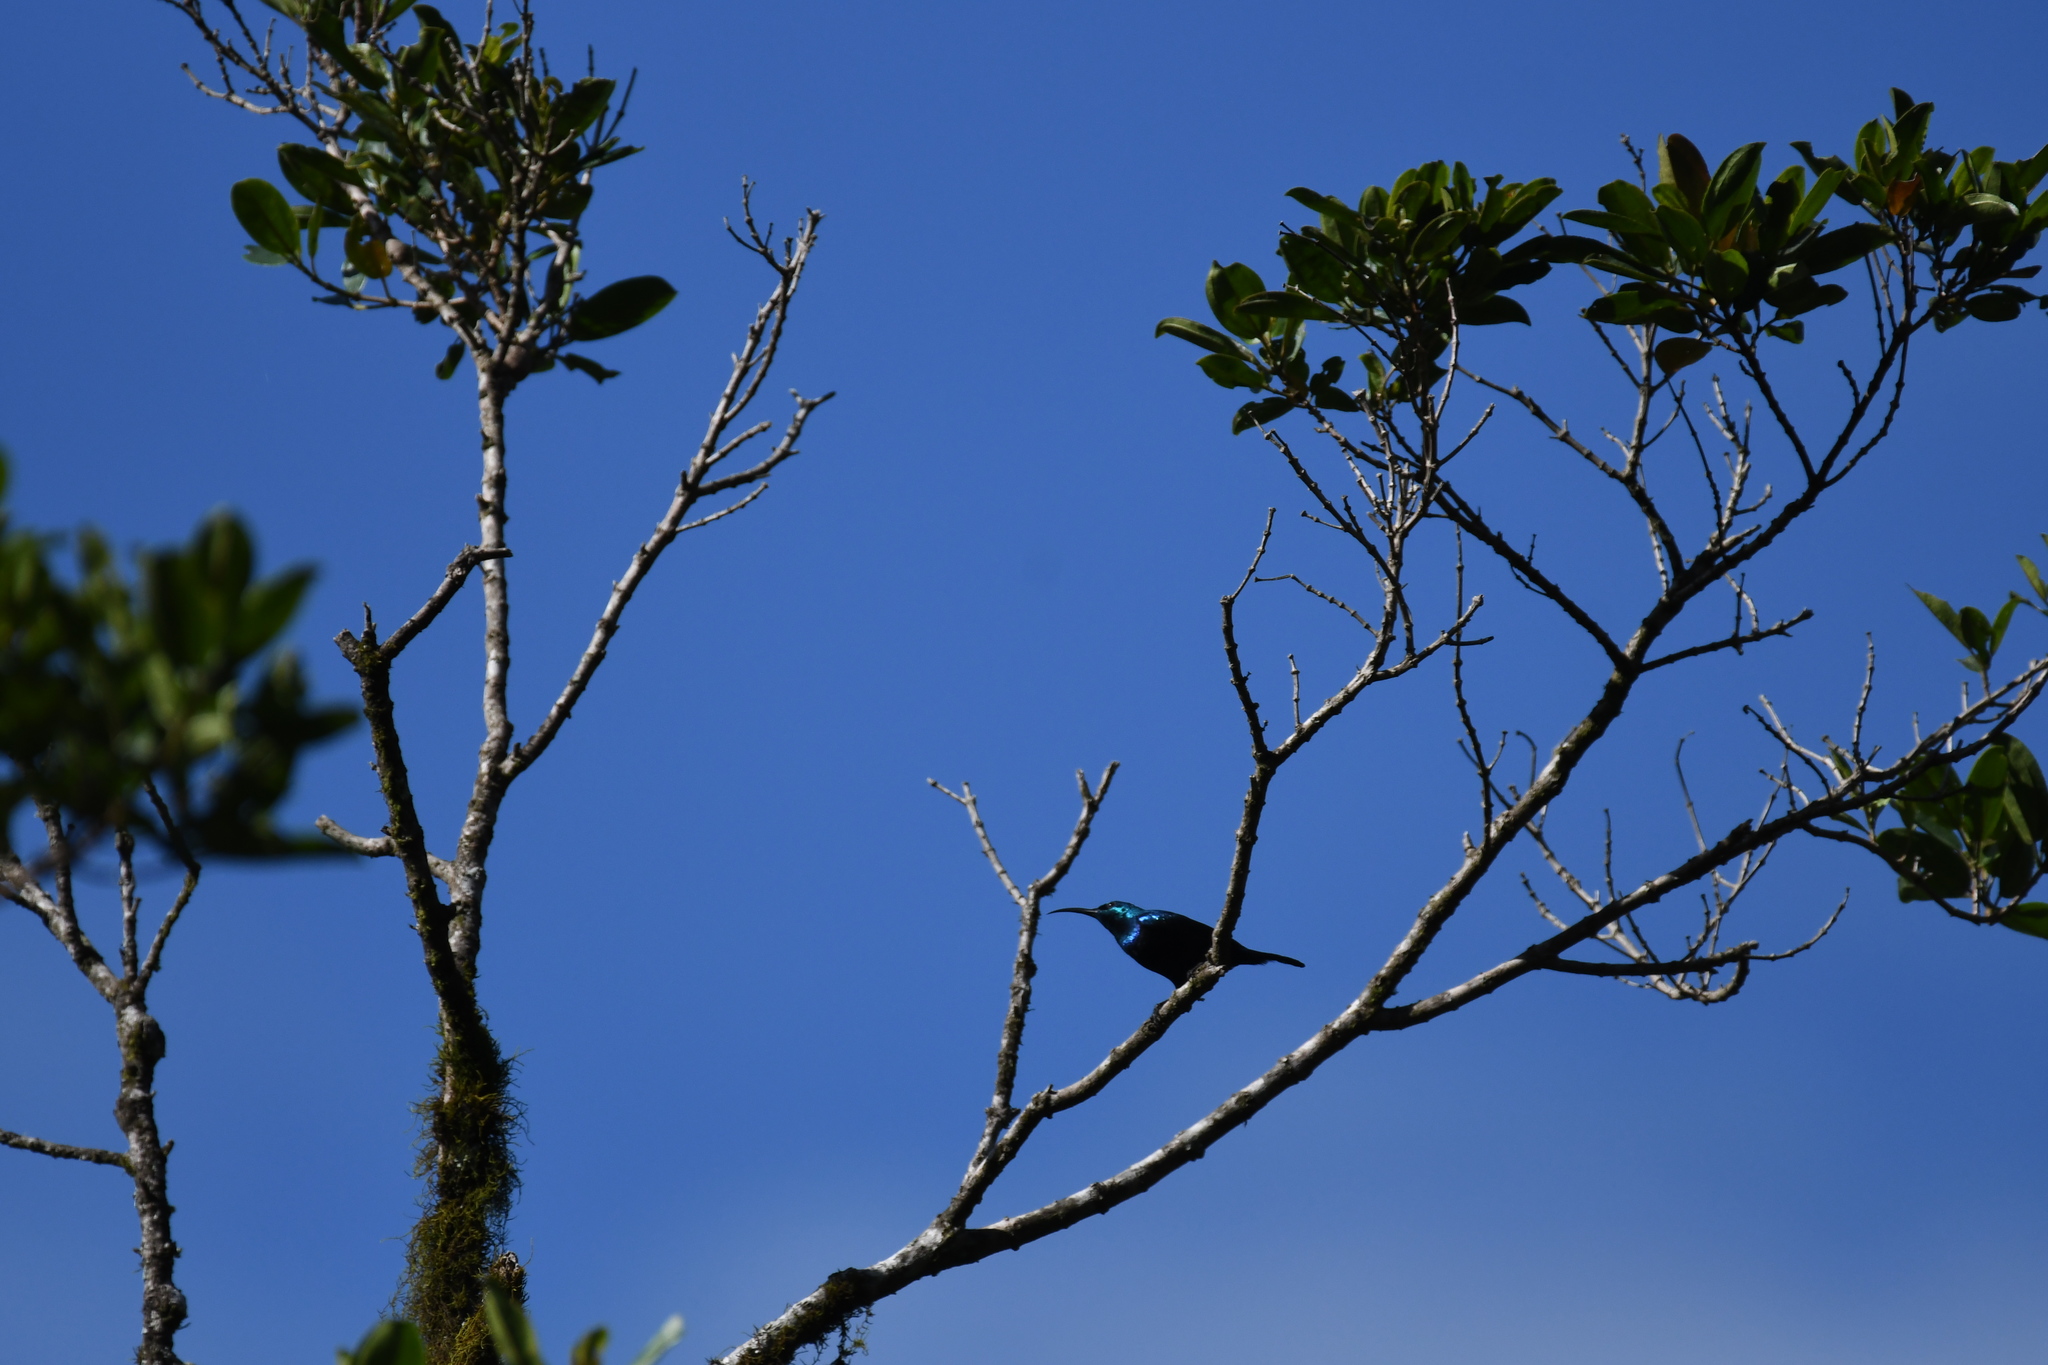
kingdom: Animalia
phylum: Chordata
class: Aves
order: Passeriformes
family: Nectariniidae
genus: Cinnyris
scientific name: Cinnyris notatus
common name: Malagasy green sunbird
